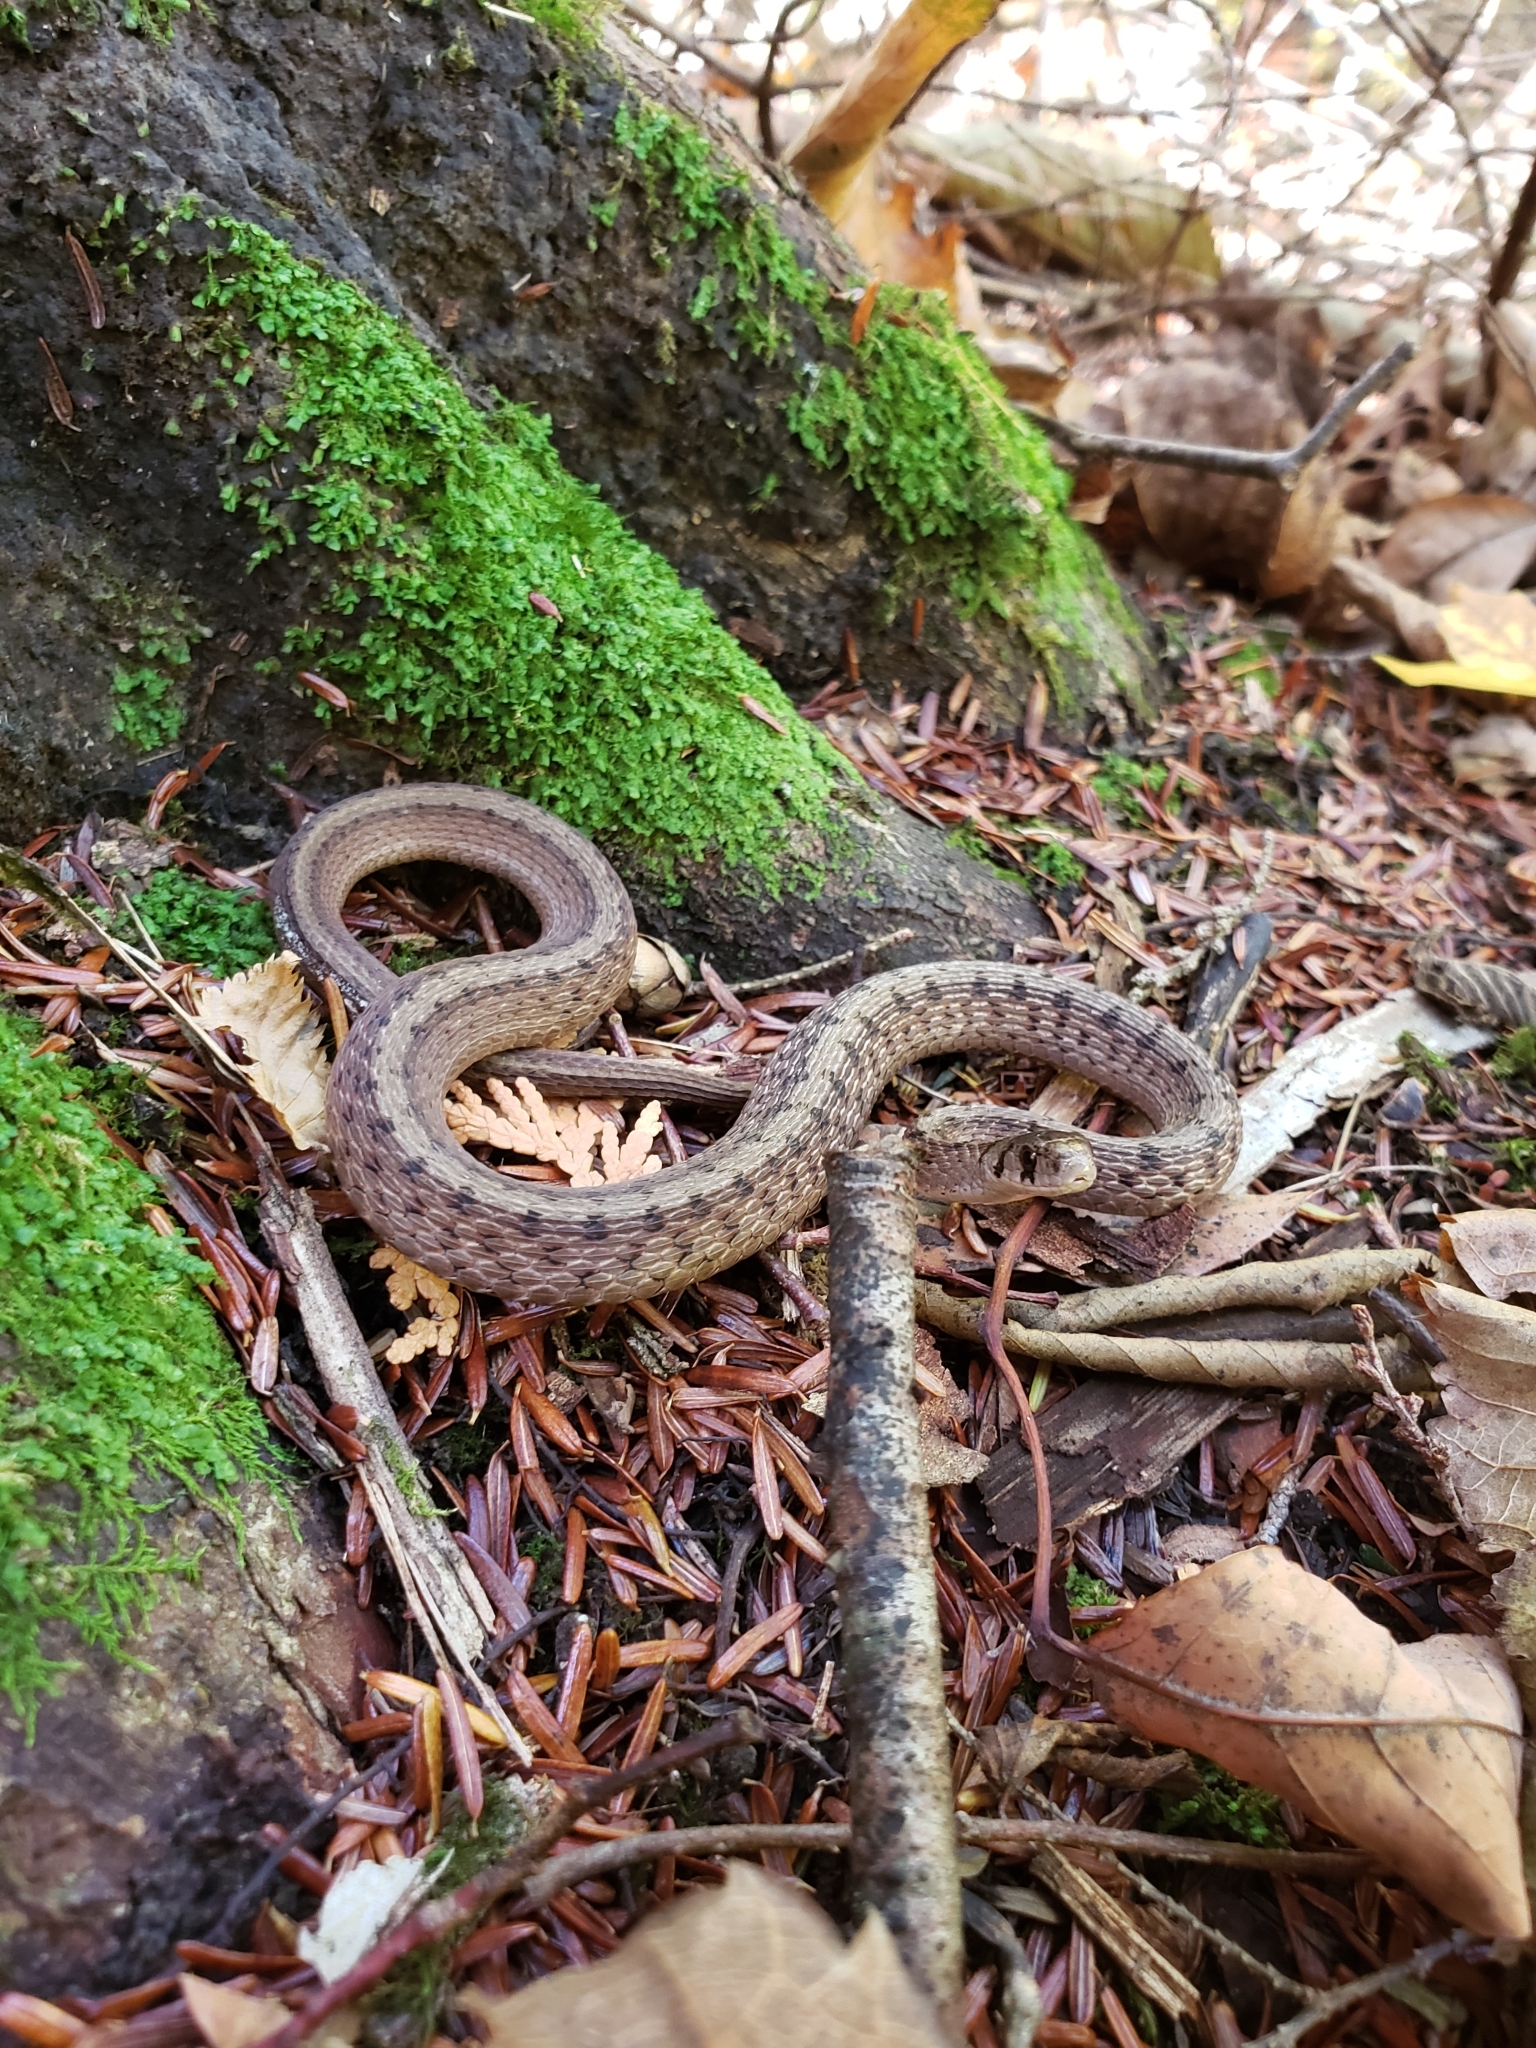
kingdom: Animalia
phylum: Chordata
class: Squamata
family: Colubridae
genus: Storeria
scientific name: Storeria dekayi
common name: (dekay’s) brown snake
